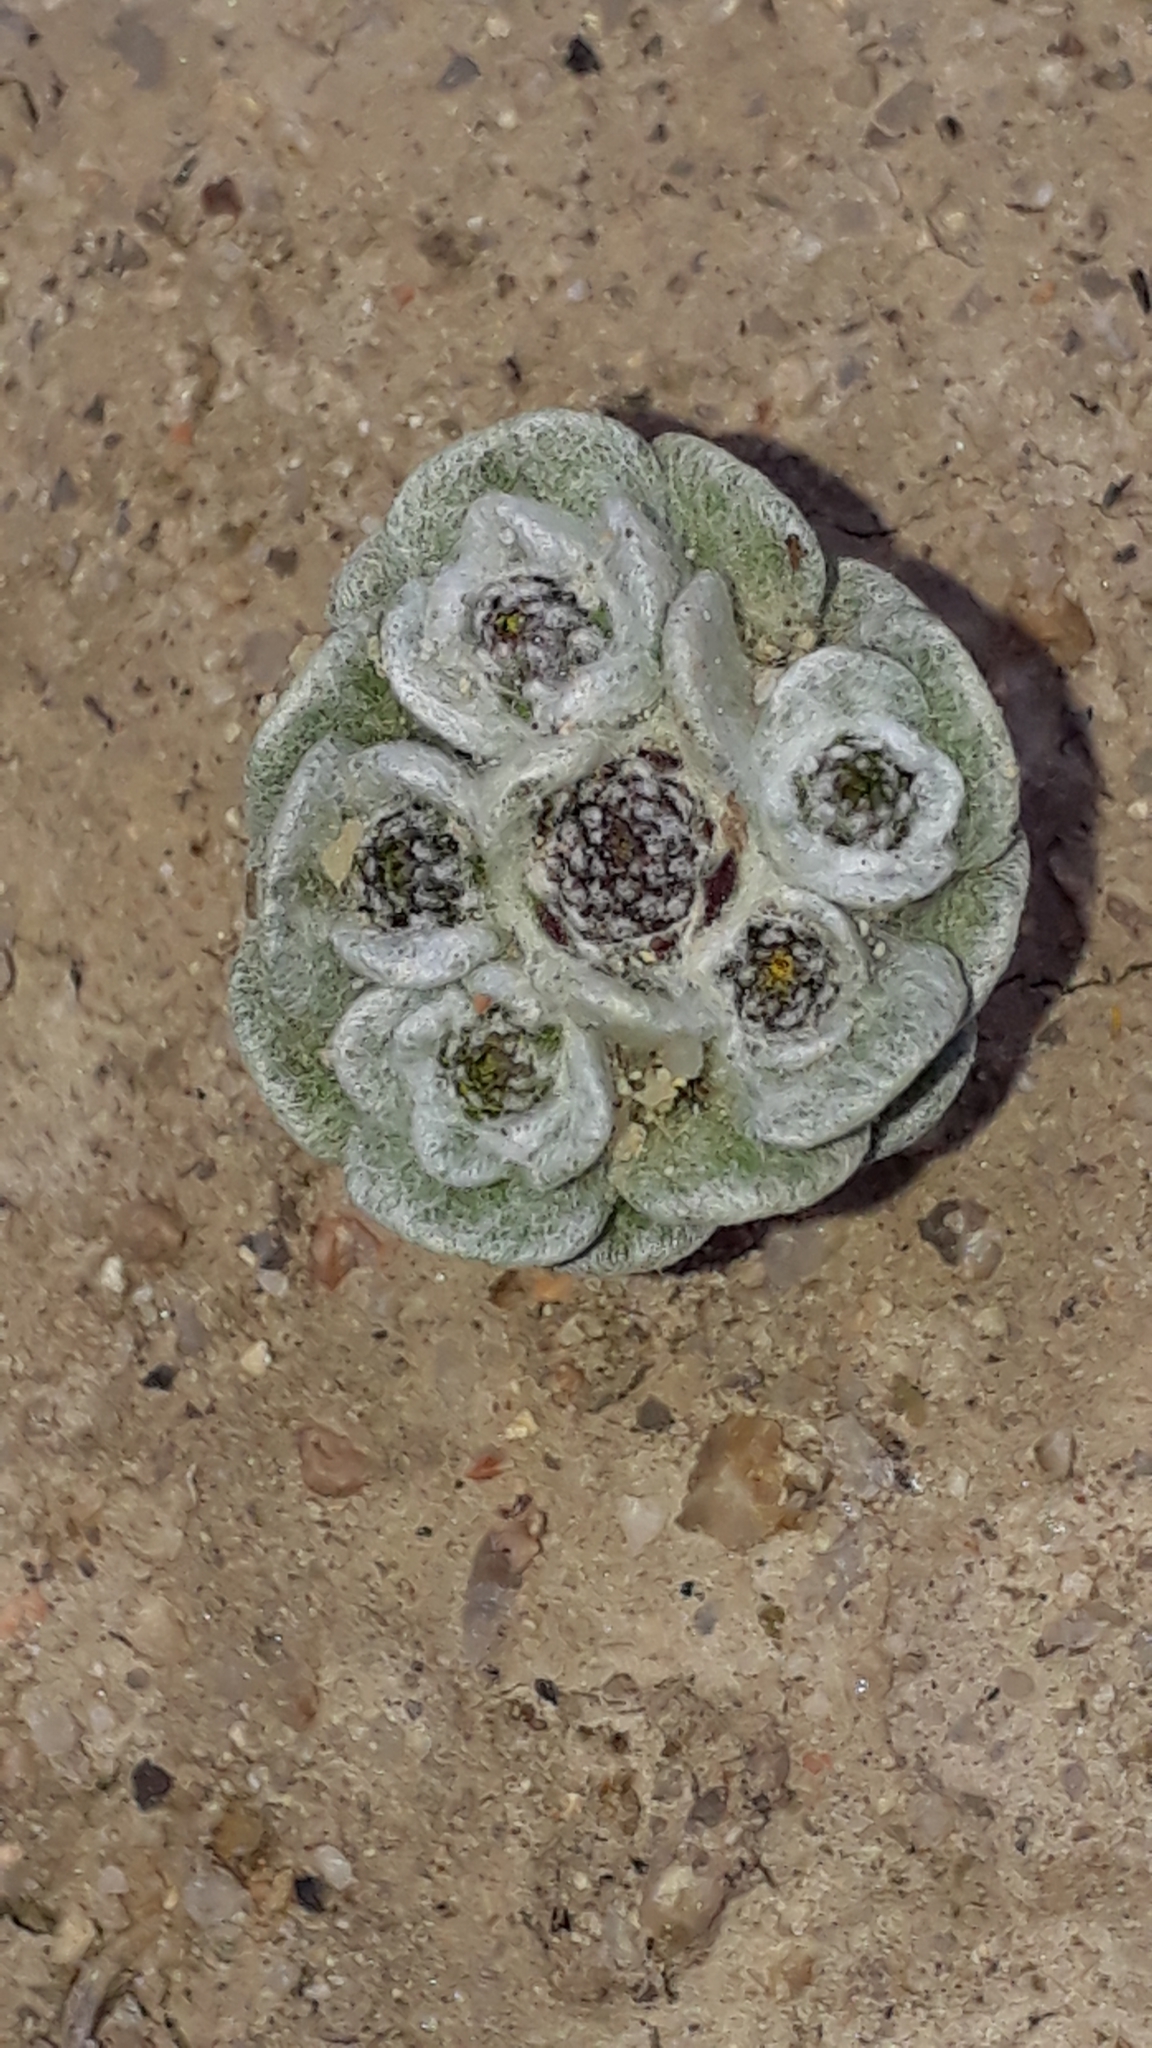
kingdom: Plantae
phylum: Tracheophyta
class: Magnoliopsida
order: Asterales
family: Asteraceae
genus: Filago
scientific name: Filago tyrrhenica
